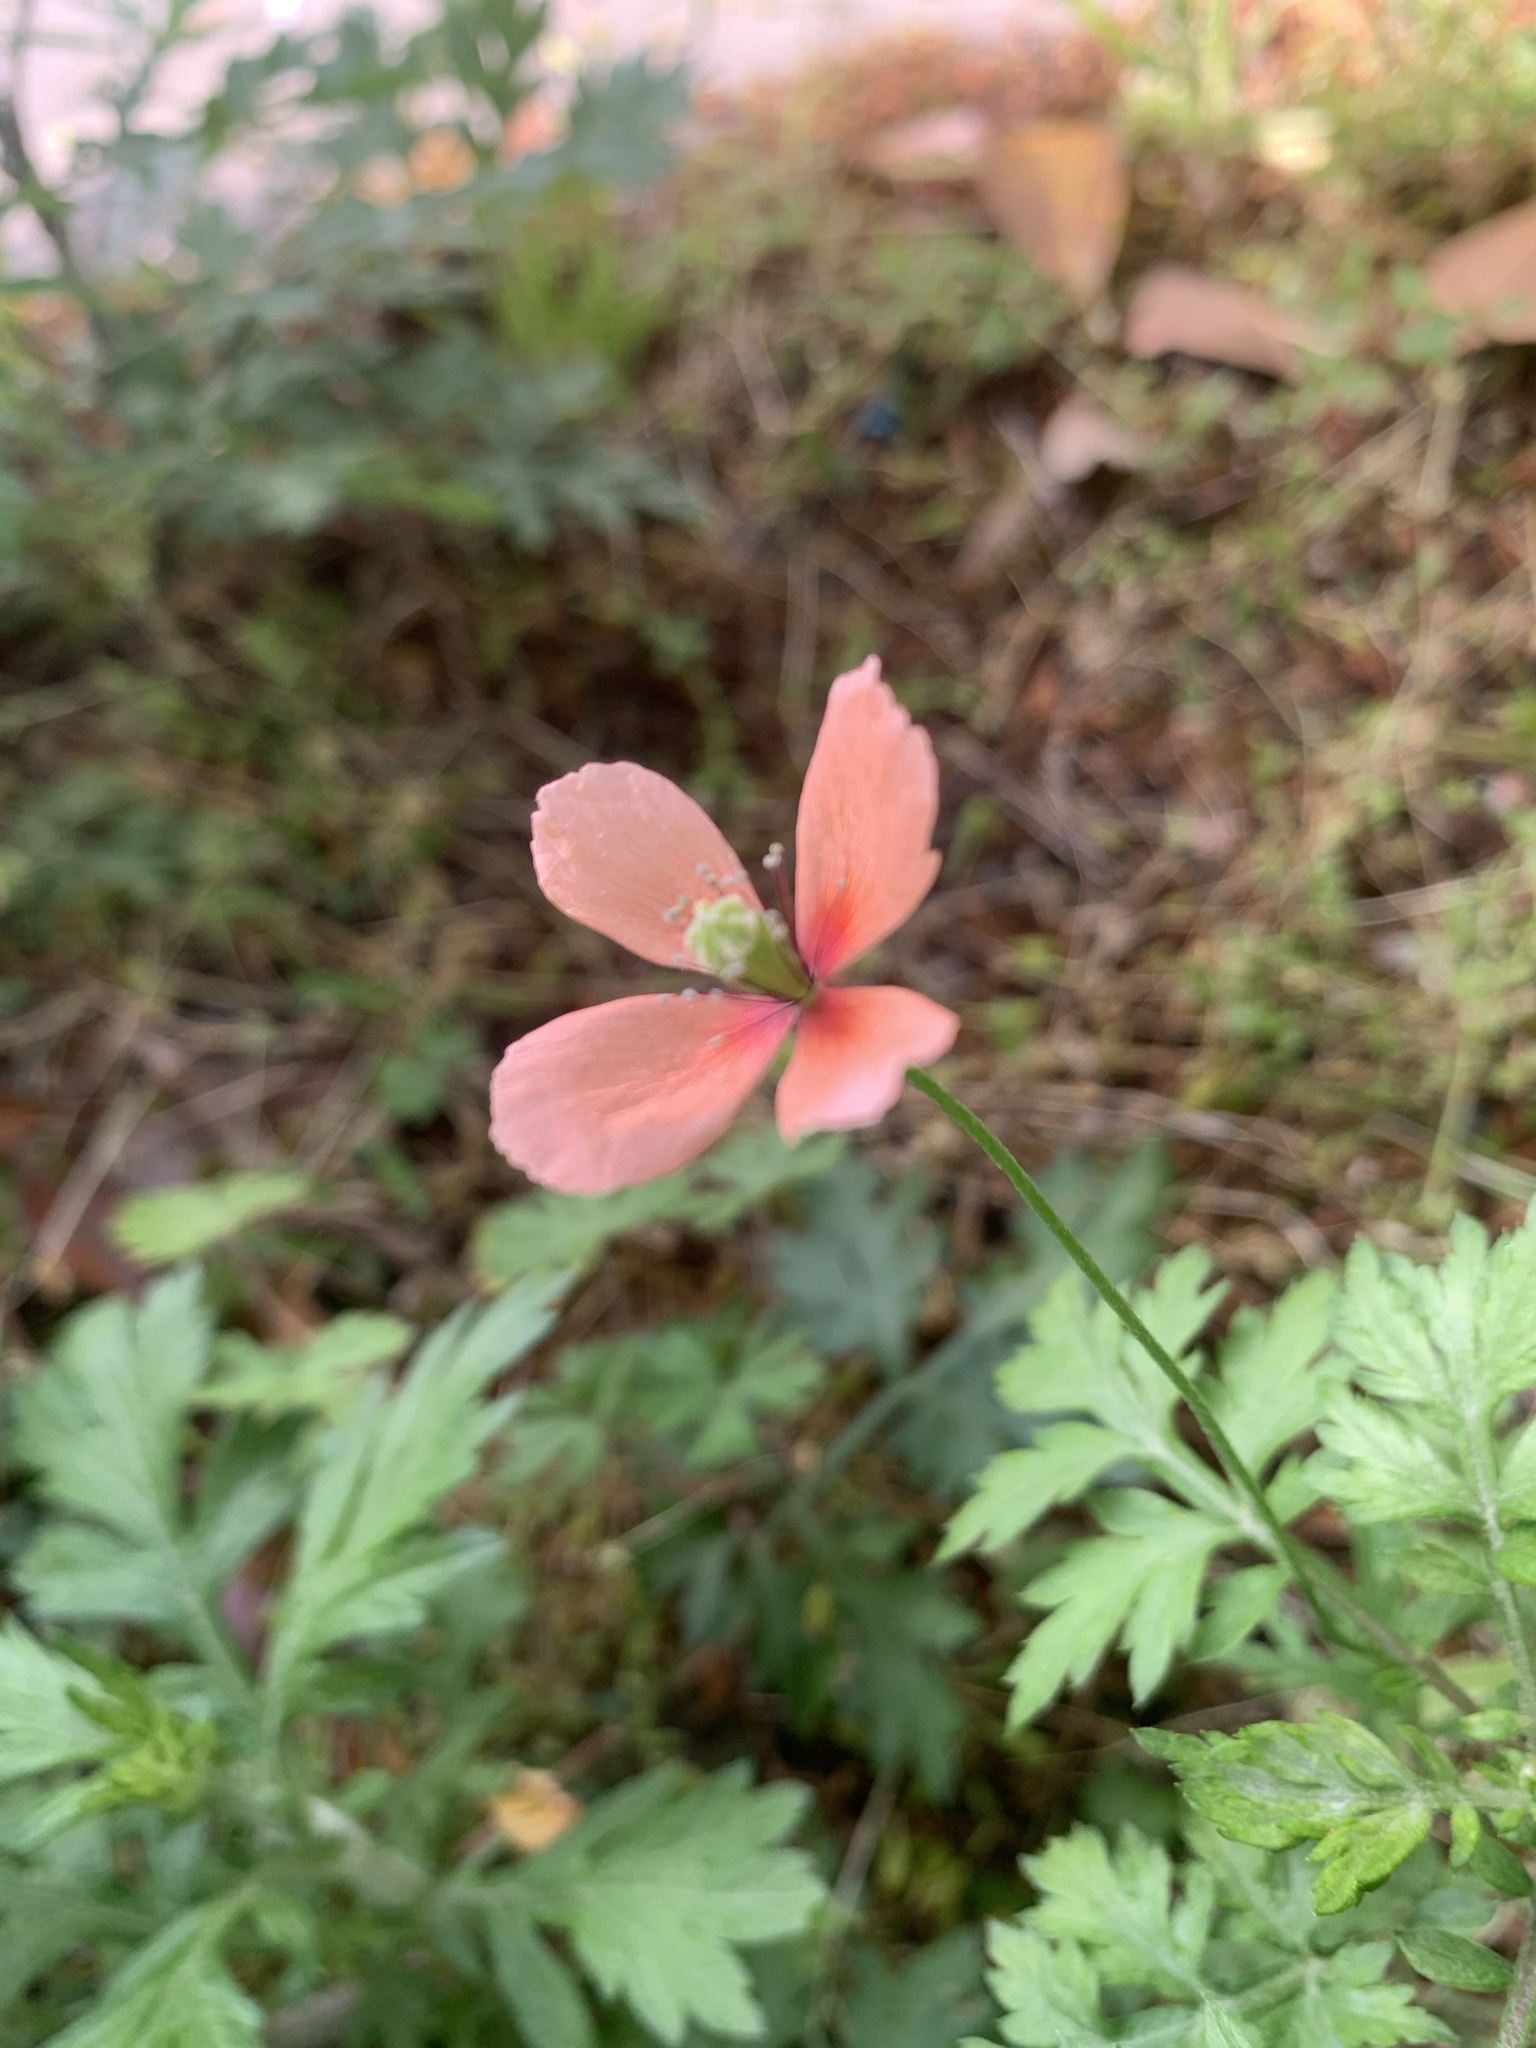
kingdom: Plantae
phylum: Tracheophyta
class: Magnoliopsida
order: Ranunculales
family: Papaveraceae
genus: Papaver
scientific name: Papaver dubium
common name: Long-headed poppy
